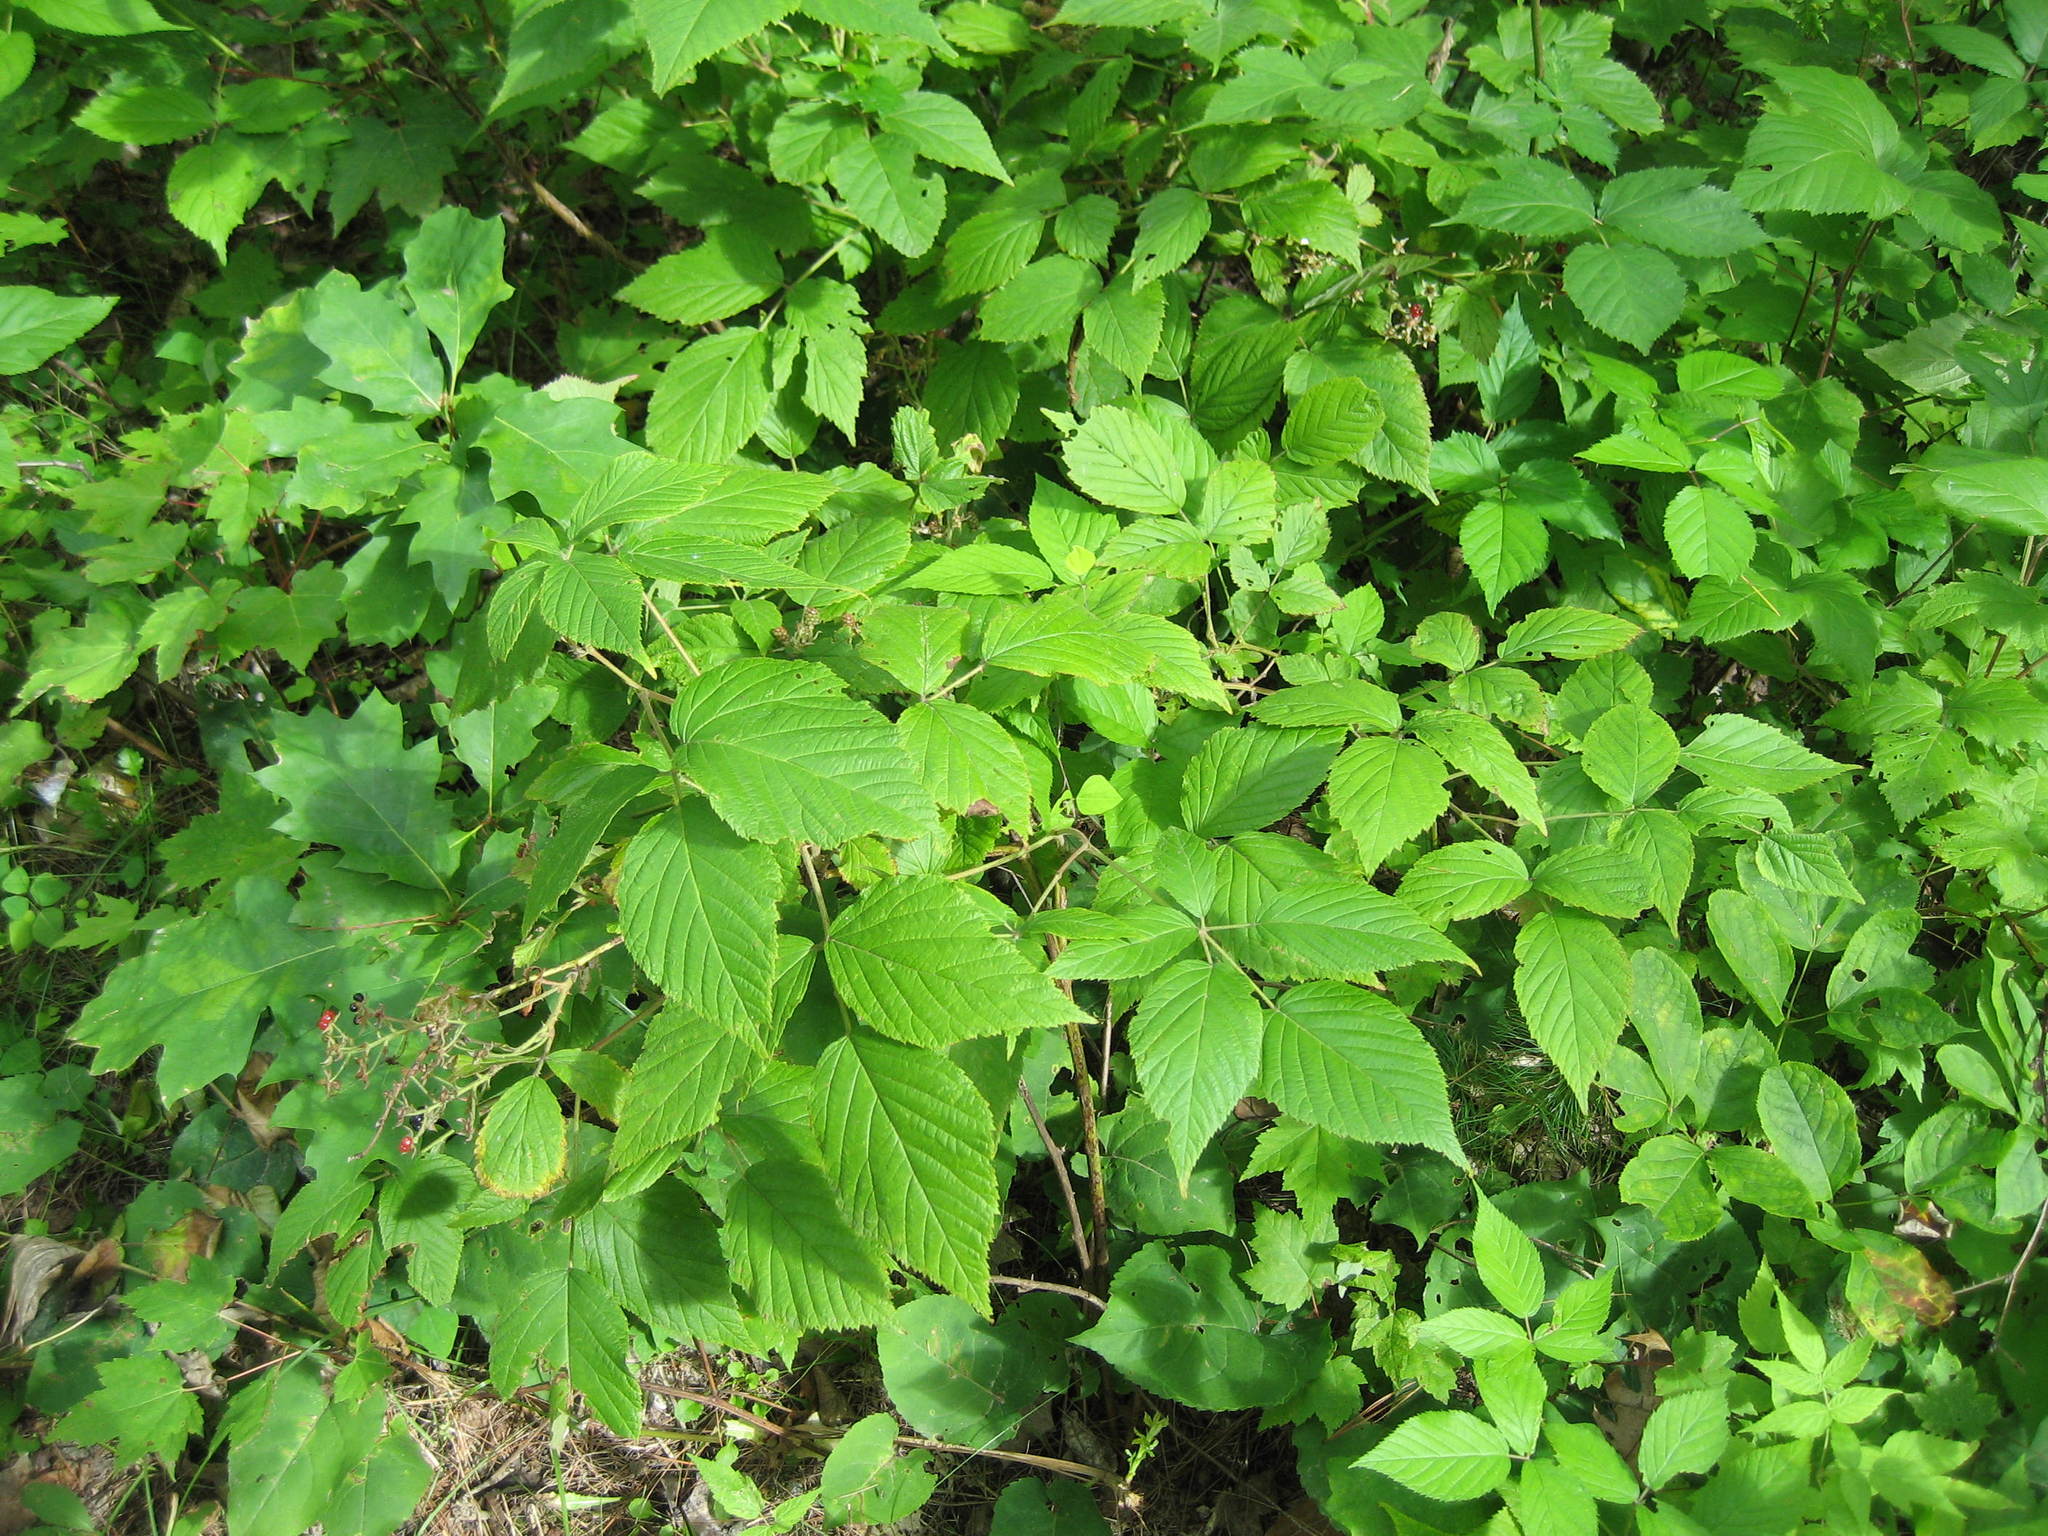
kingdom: Plantae
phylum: Tracheophyta
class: Magnoliopsida
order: Rosales
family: Rosaceae
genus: Rubus
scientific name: Rubus pensilvanicus
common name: Pennsylvania blackberry
